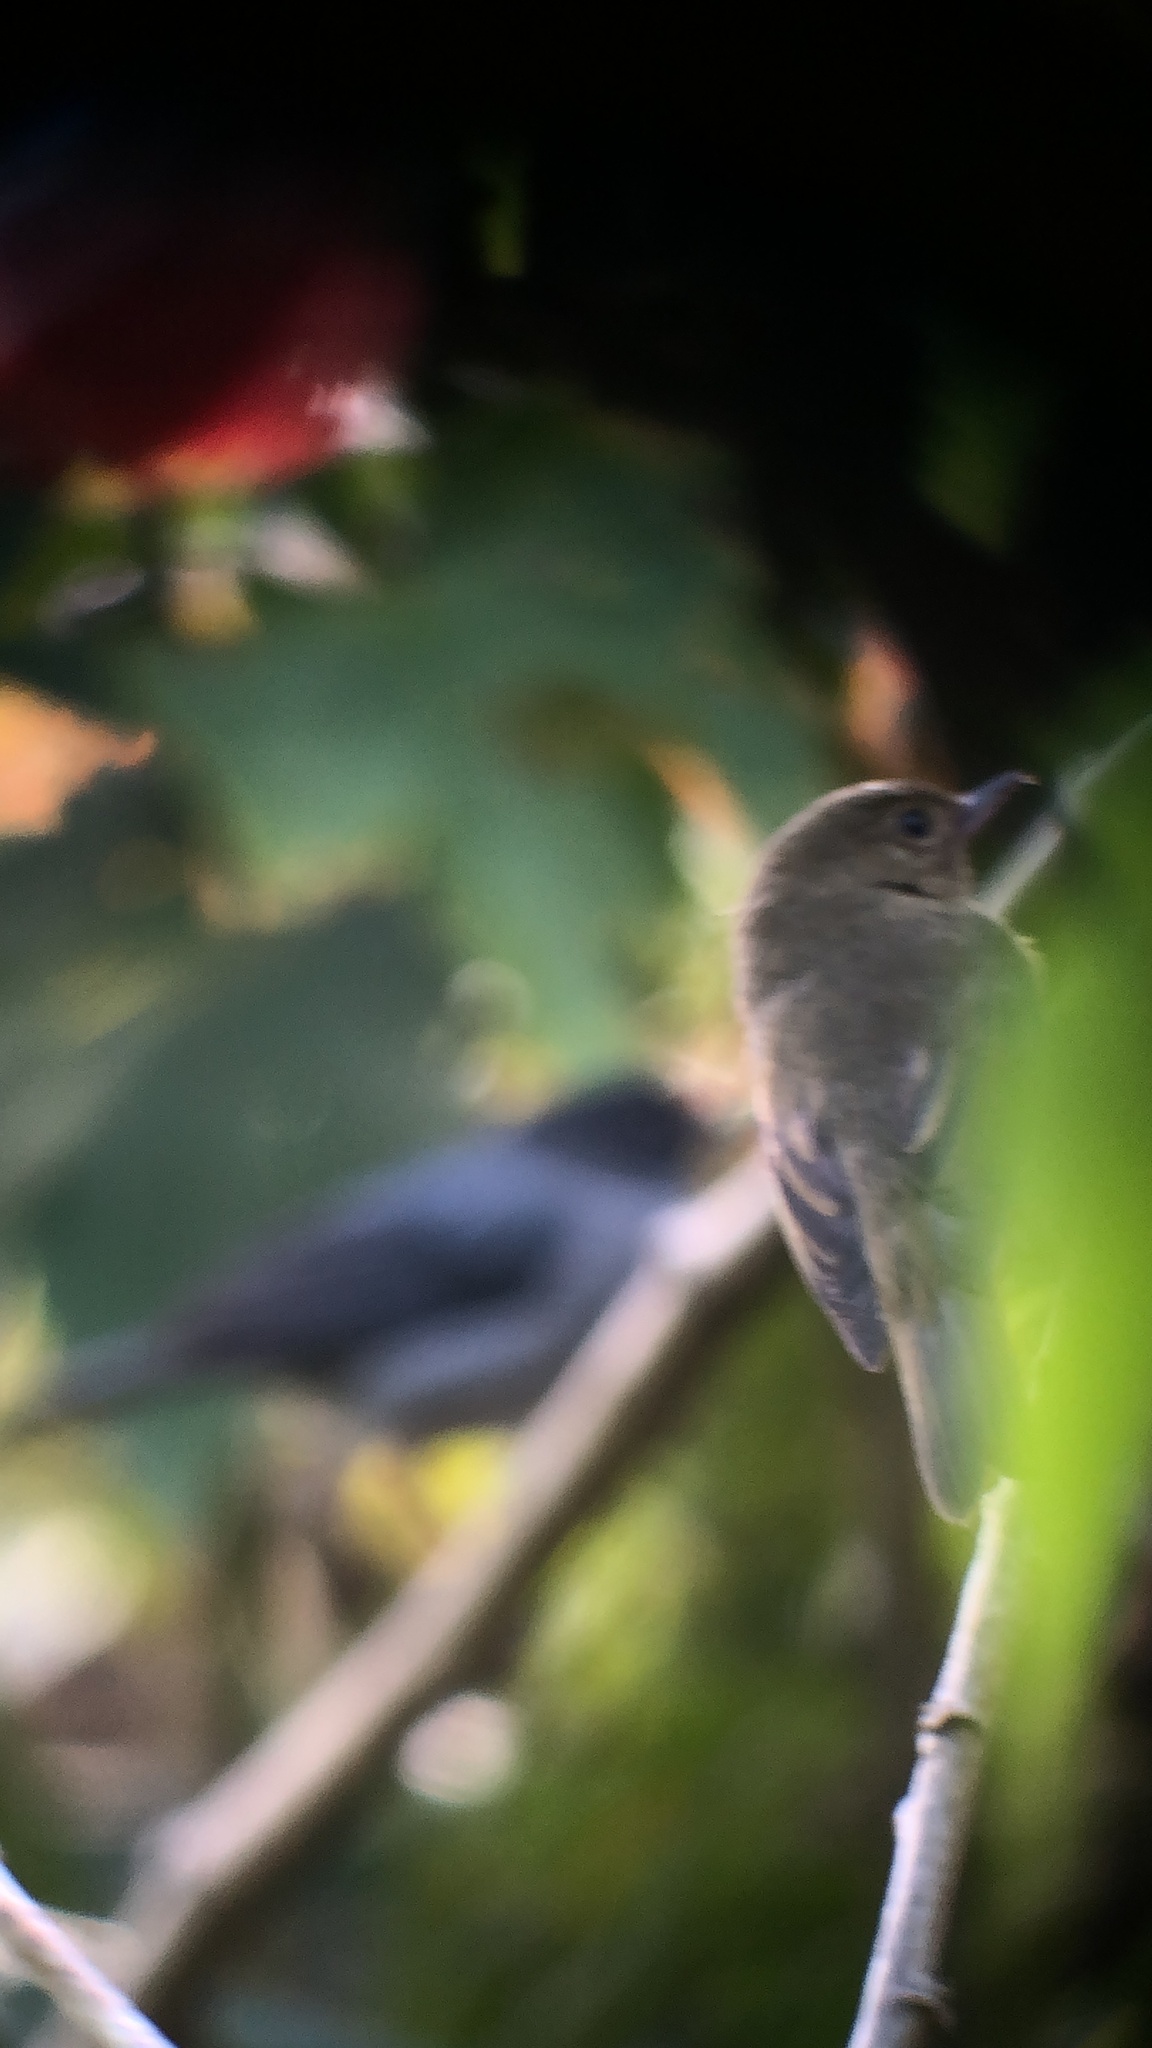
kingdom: Animalia
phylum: Chordata
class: Aves
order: Passeriformes
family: Thraupidae
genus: Diglossa
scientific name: Diglossa plumbea
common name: Slaty flowerpiercer
